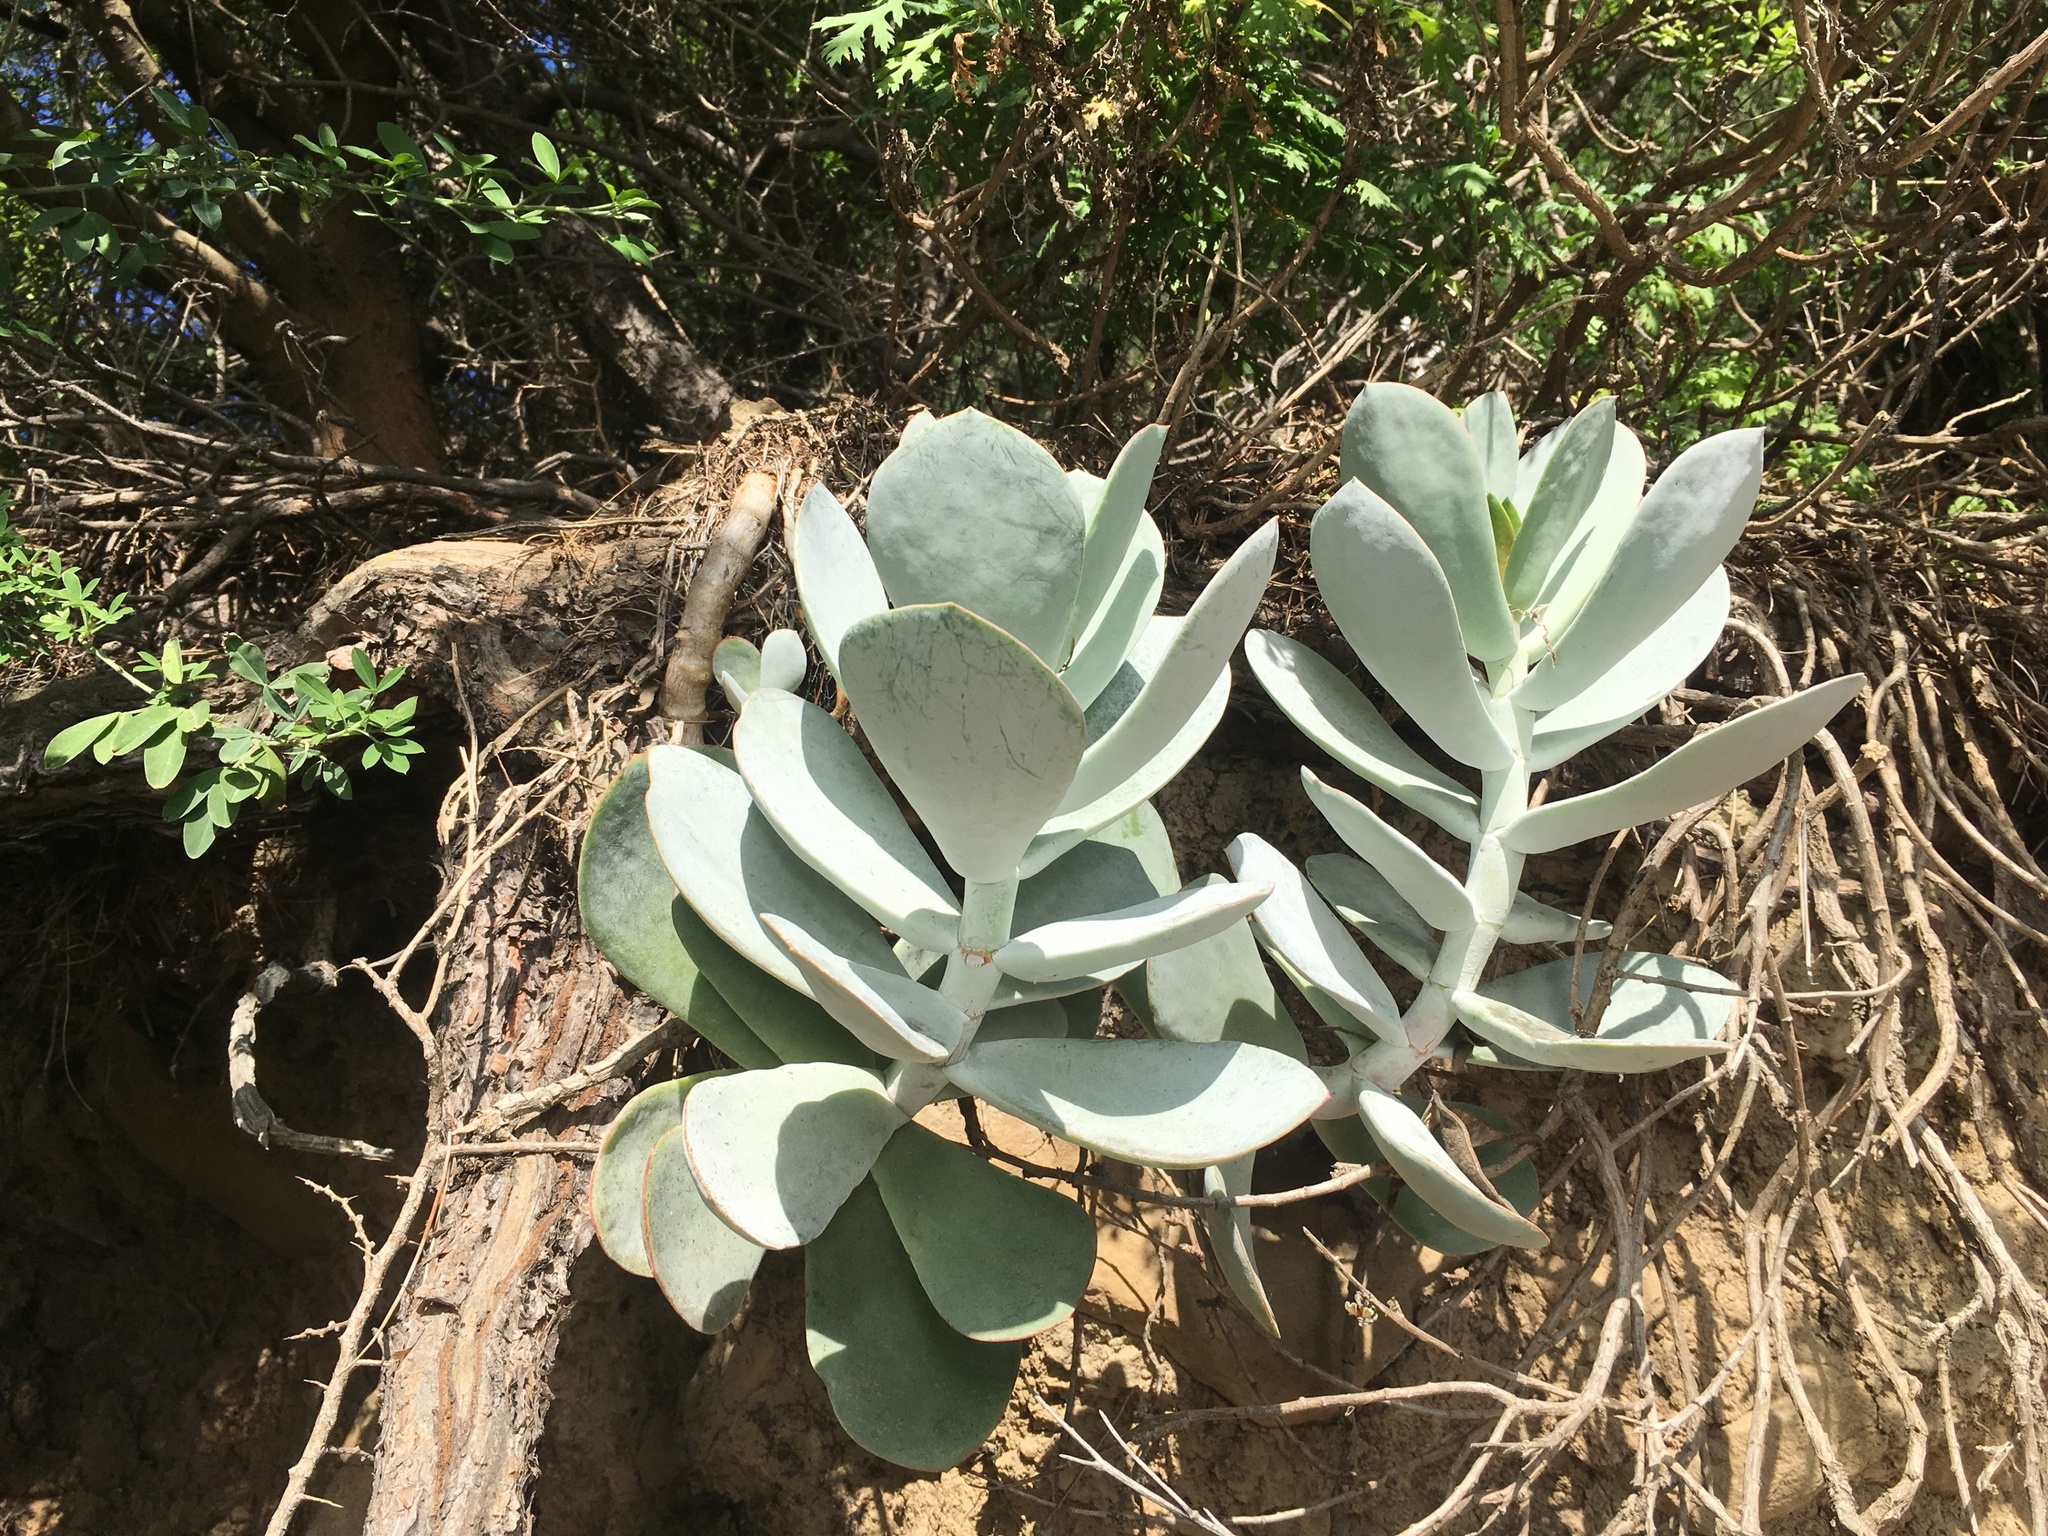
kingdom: Plantae
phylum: Tracheophyta
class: Magnoliopsida
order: Saxifragales
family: Crassulaceae
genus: Cotyledon
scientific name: Cotyledon orbiculata
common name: Pig's ear
